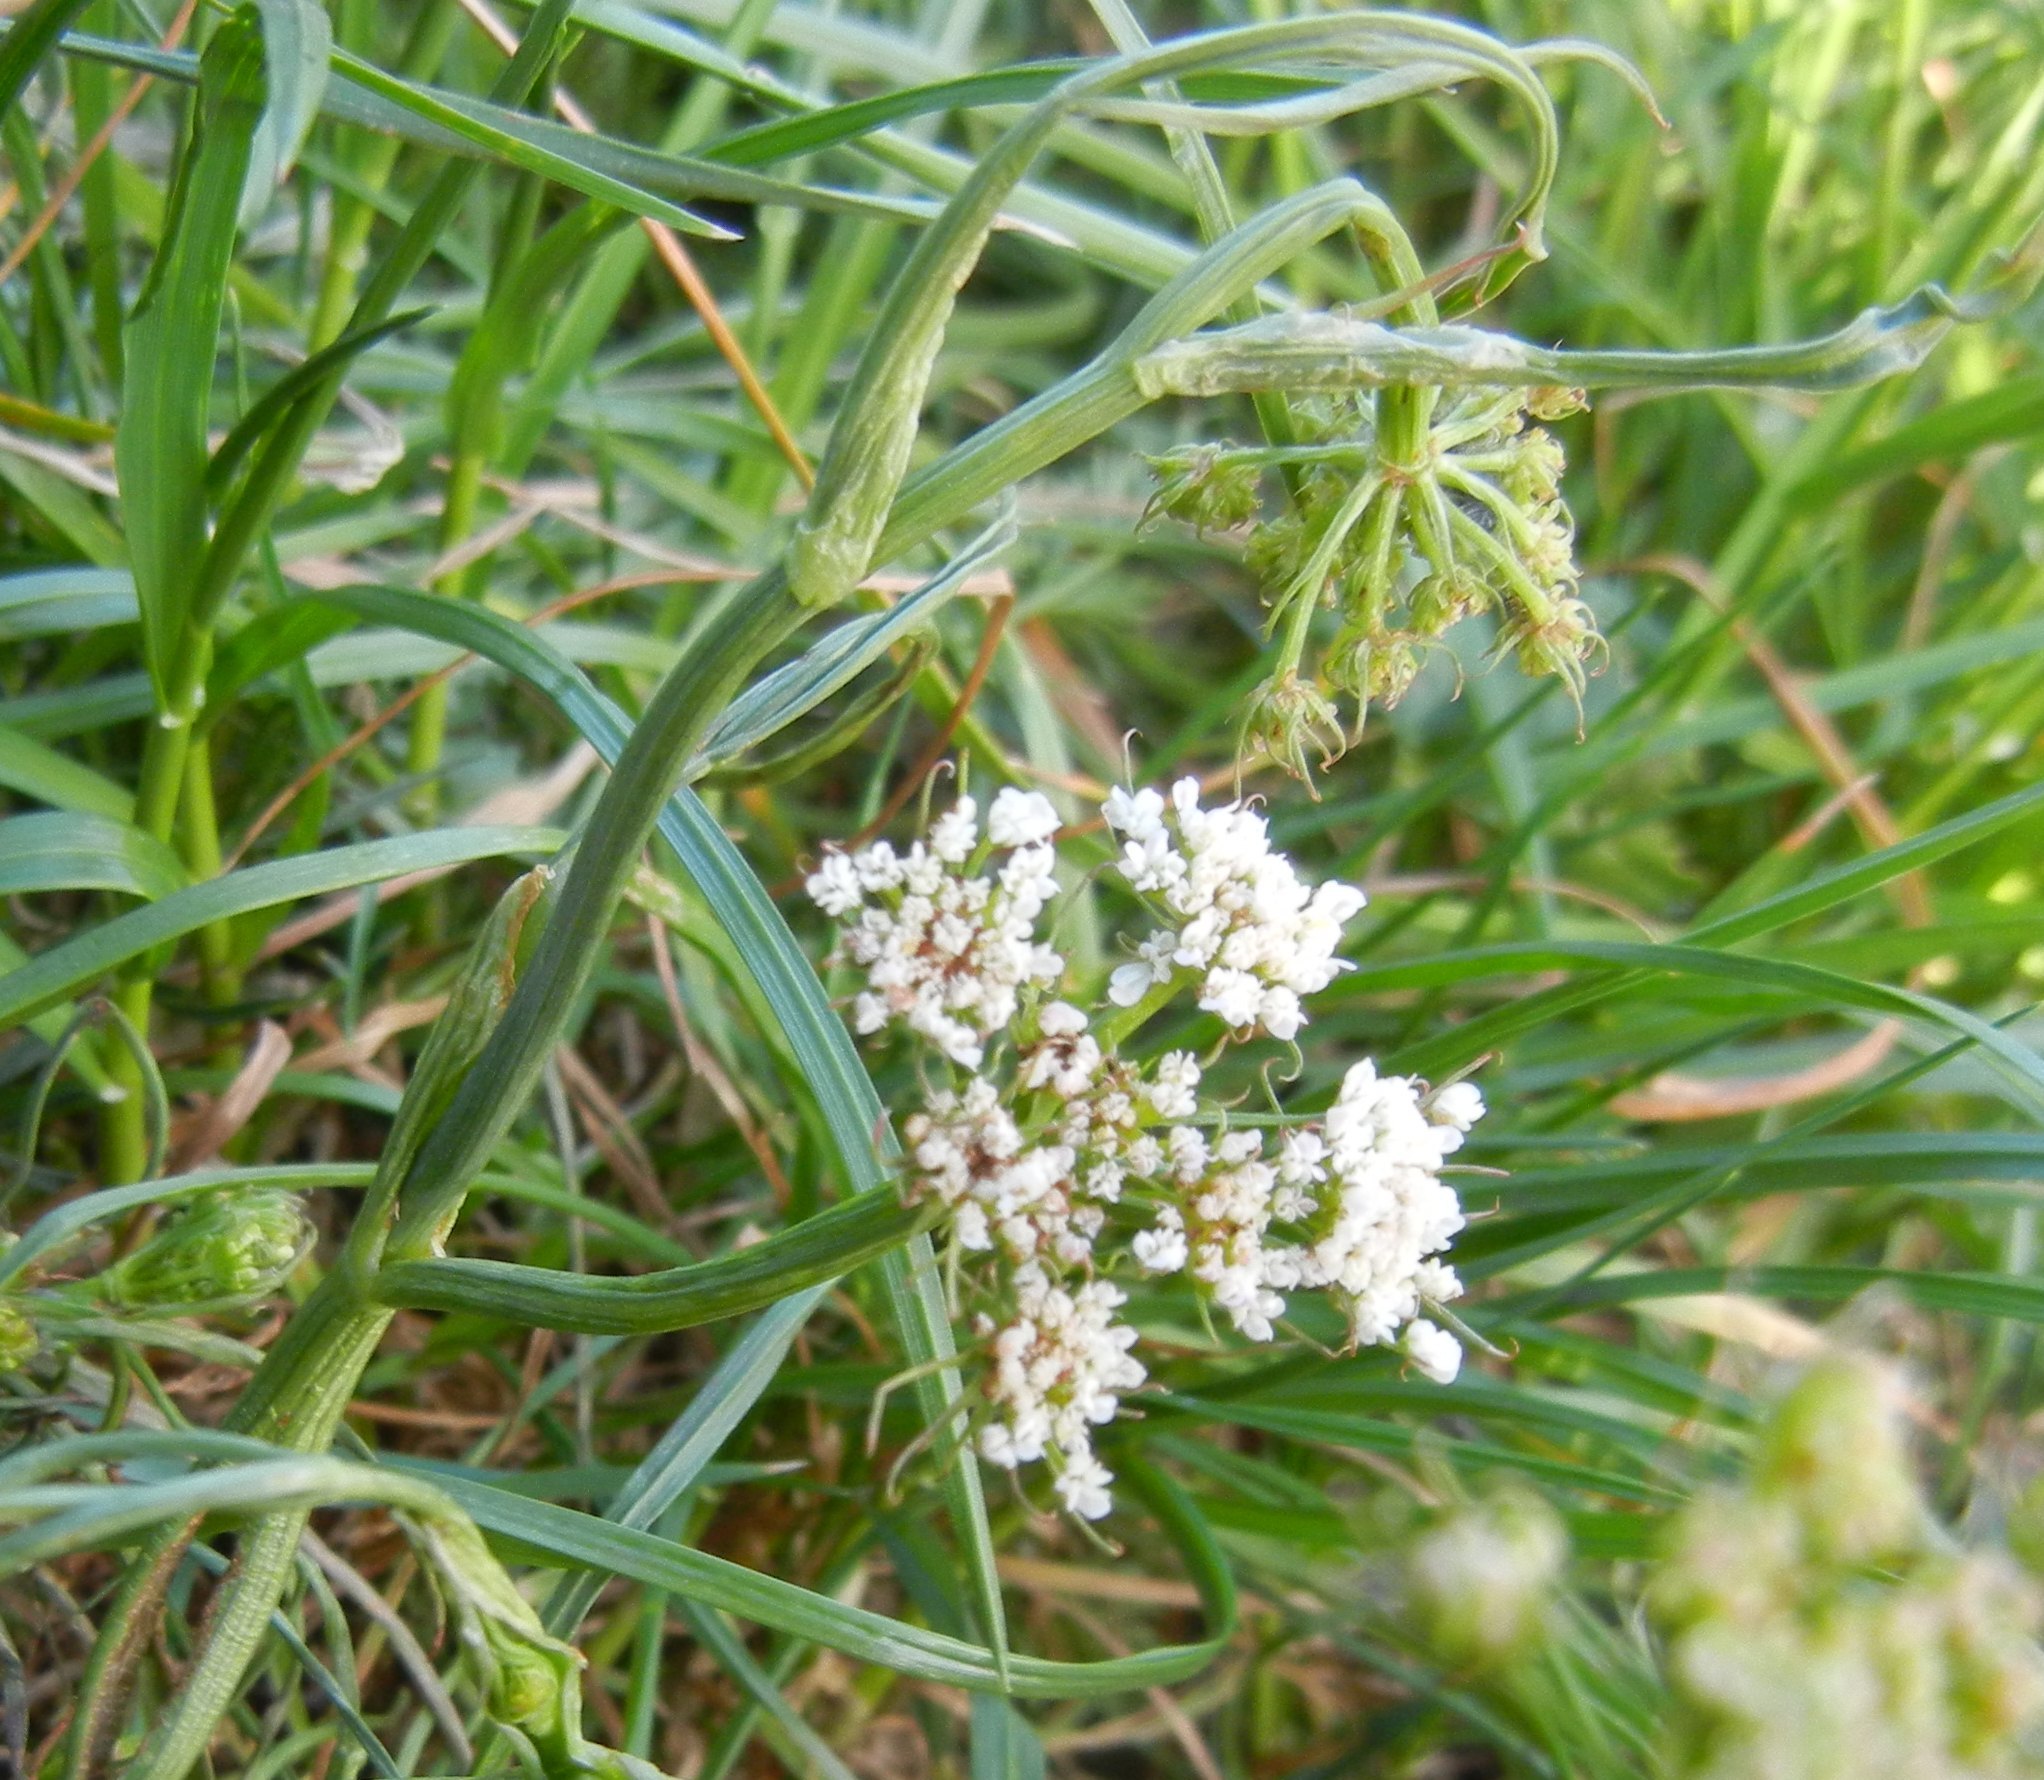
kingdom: Plantae
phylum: Tracheophyta
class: Magnoliopsida
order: Apiales
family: Apiaceae
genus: Oenanthe
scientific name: Oenanthe pimpinelloides
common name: Corky-fruited water-dropwort
